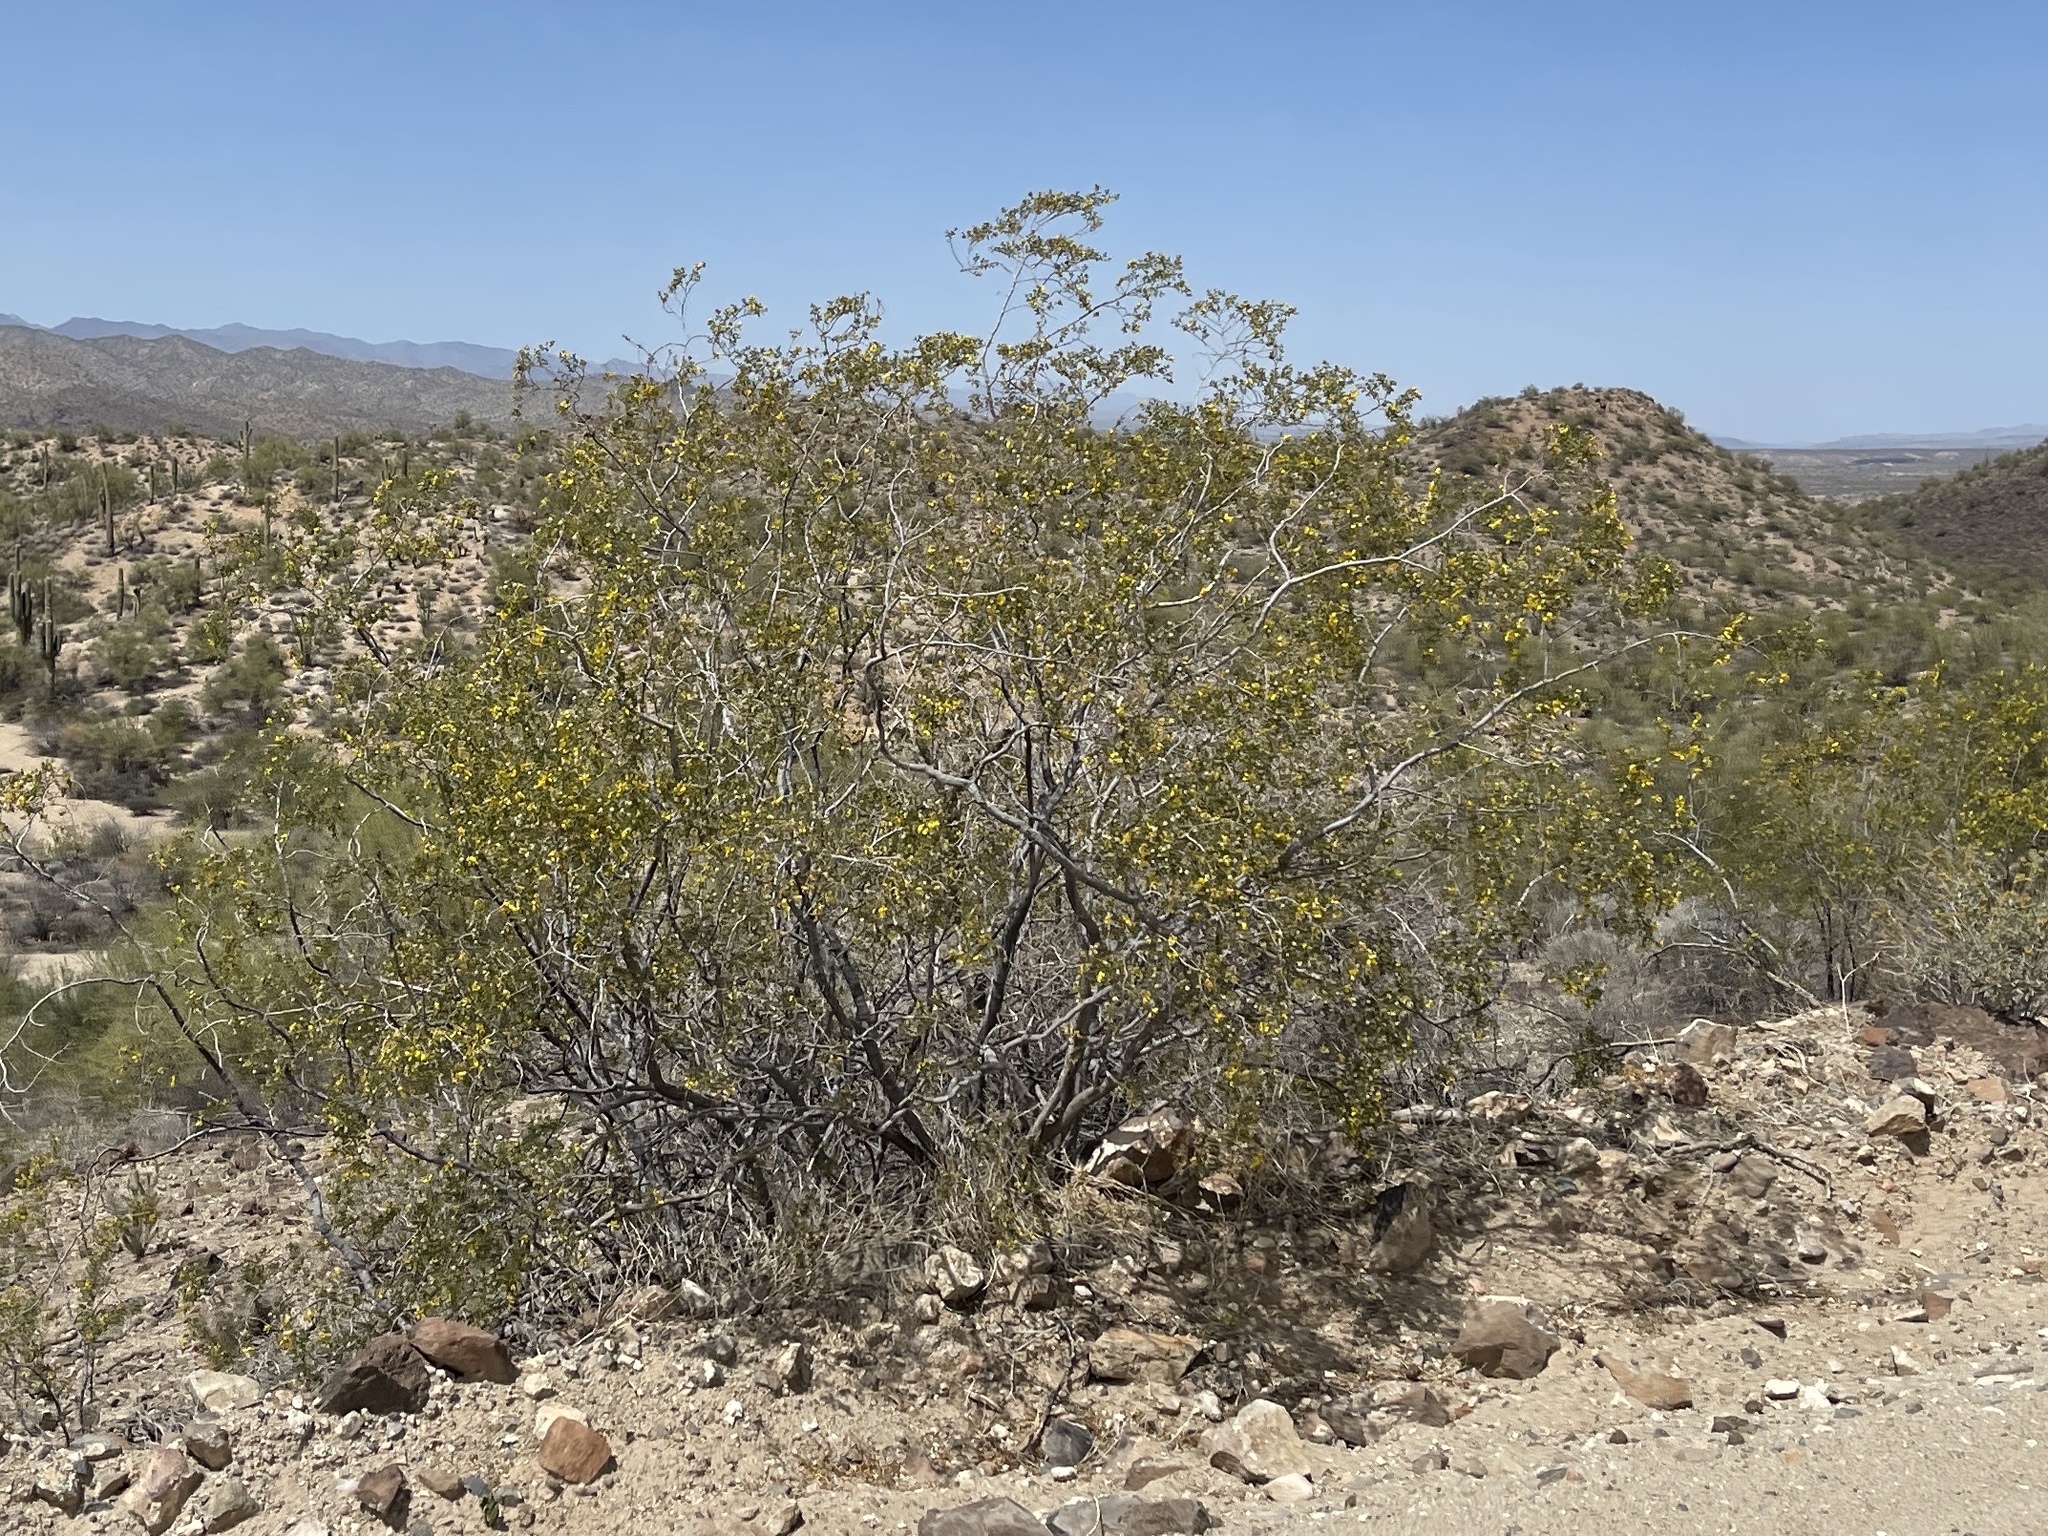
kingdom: Plantae
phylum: Tracheophyta
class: Magnoliopsida
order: Zygophyllales
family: Zygophyllaceae
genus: Larrea
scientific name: Larrea tridentata
